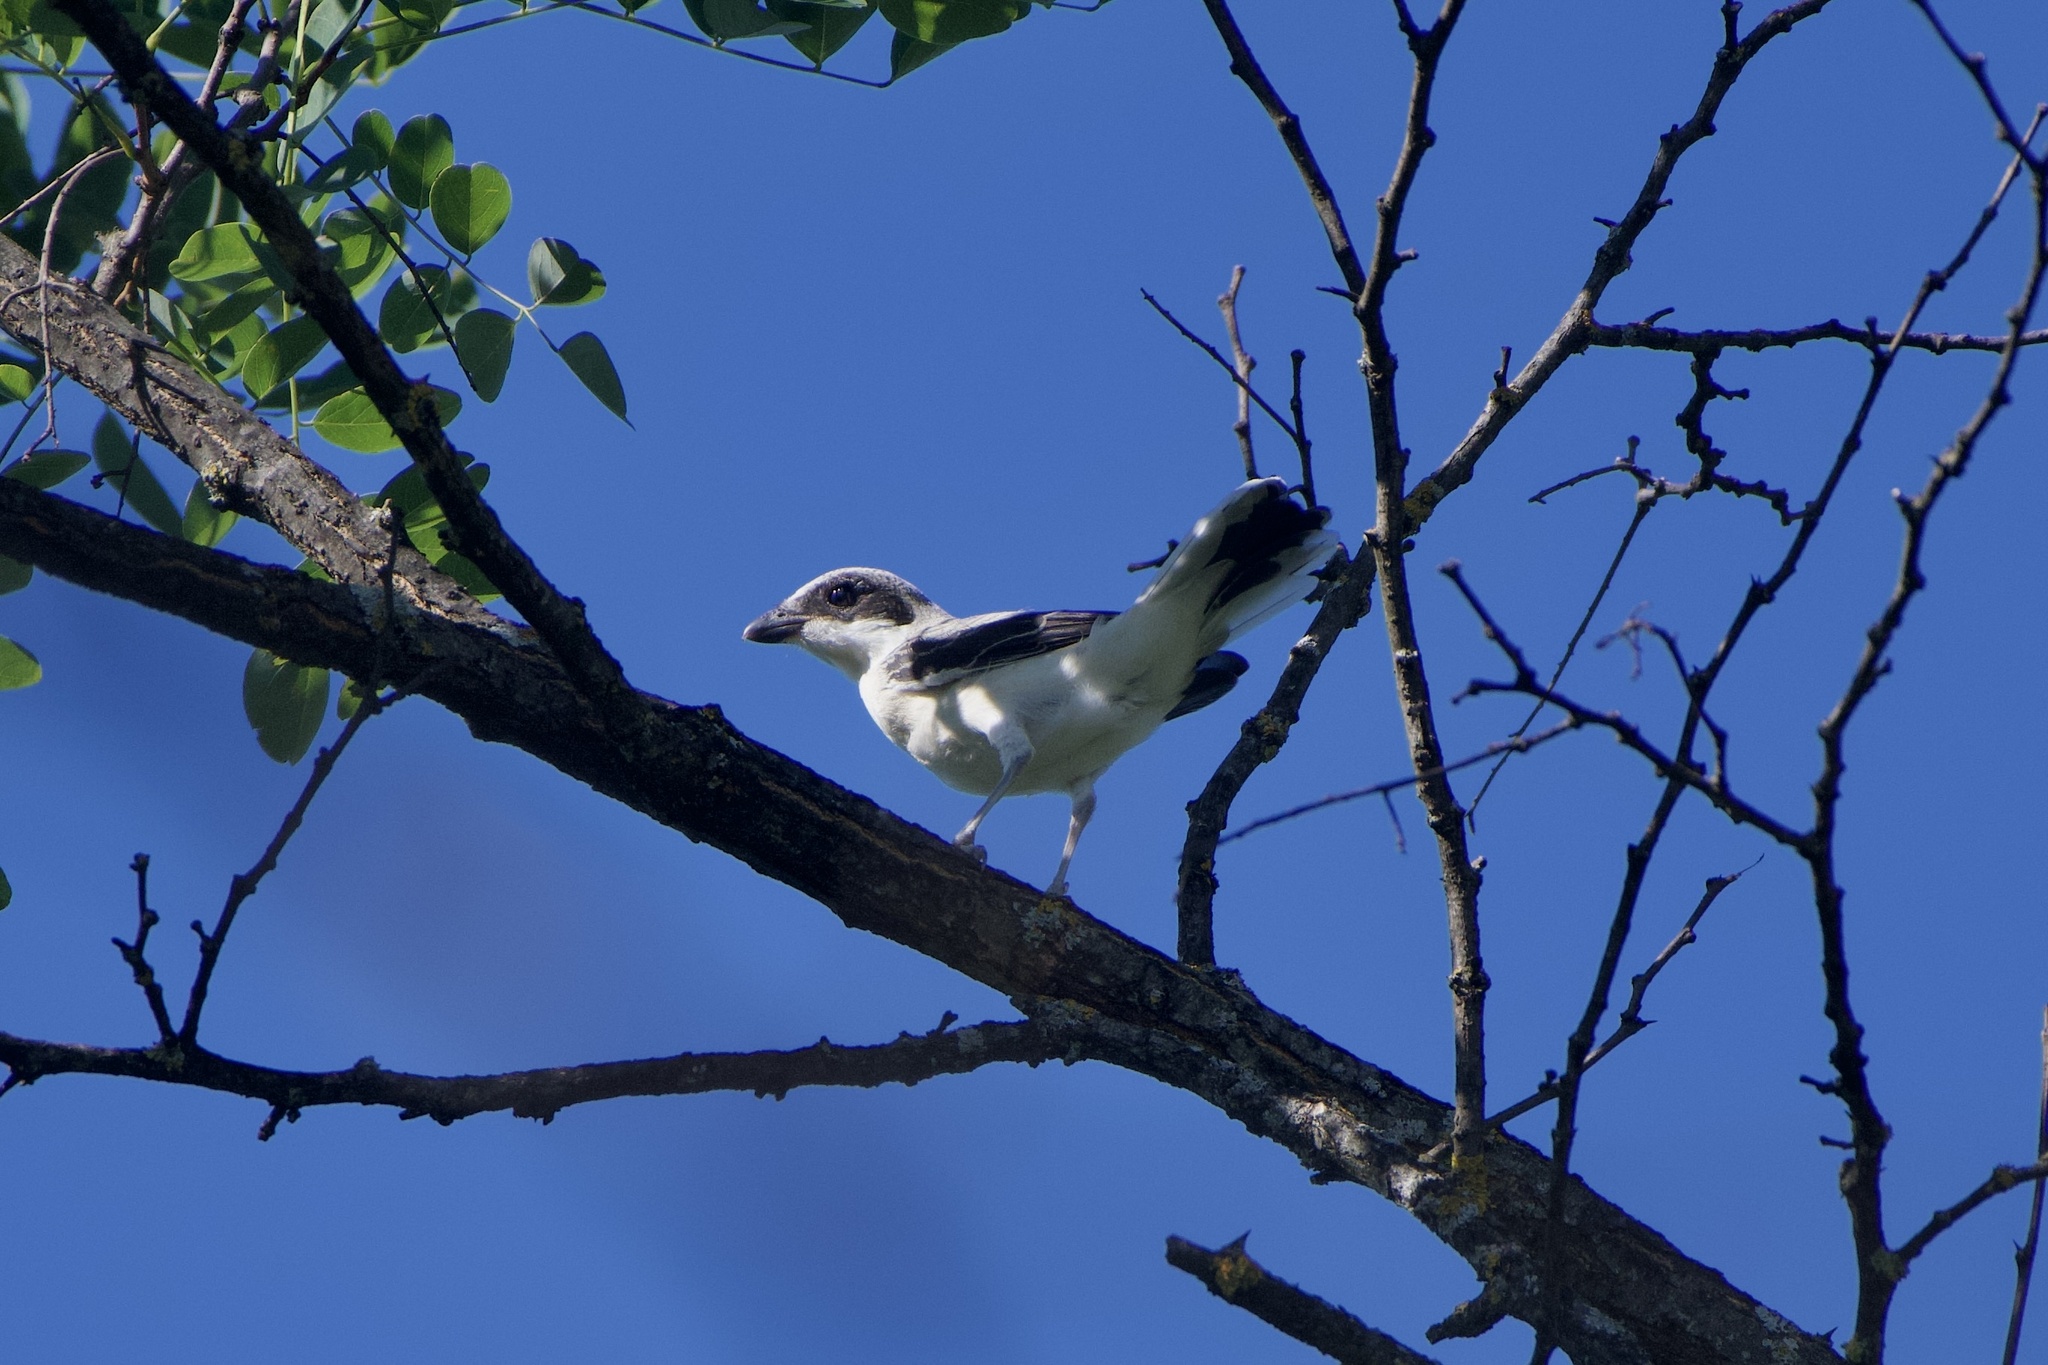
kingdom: Animalia
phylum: Chordata
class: Aves
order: Passeriformes
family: Laniidae
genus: Lanius
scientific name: Lanius minor
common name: Lesser grey shrike
